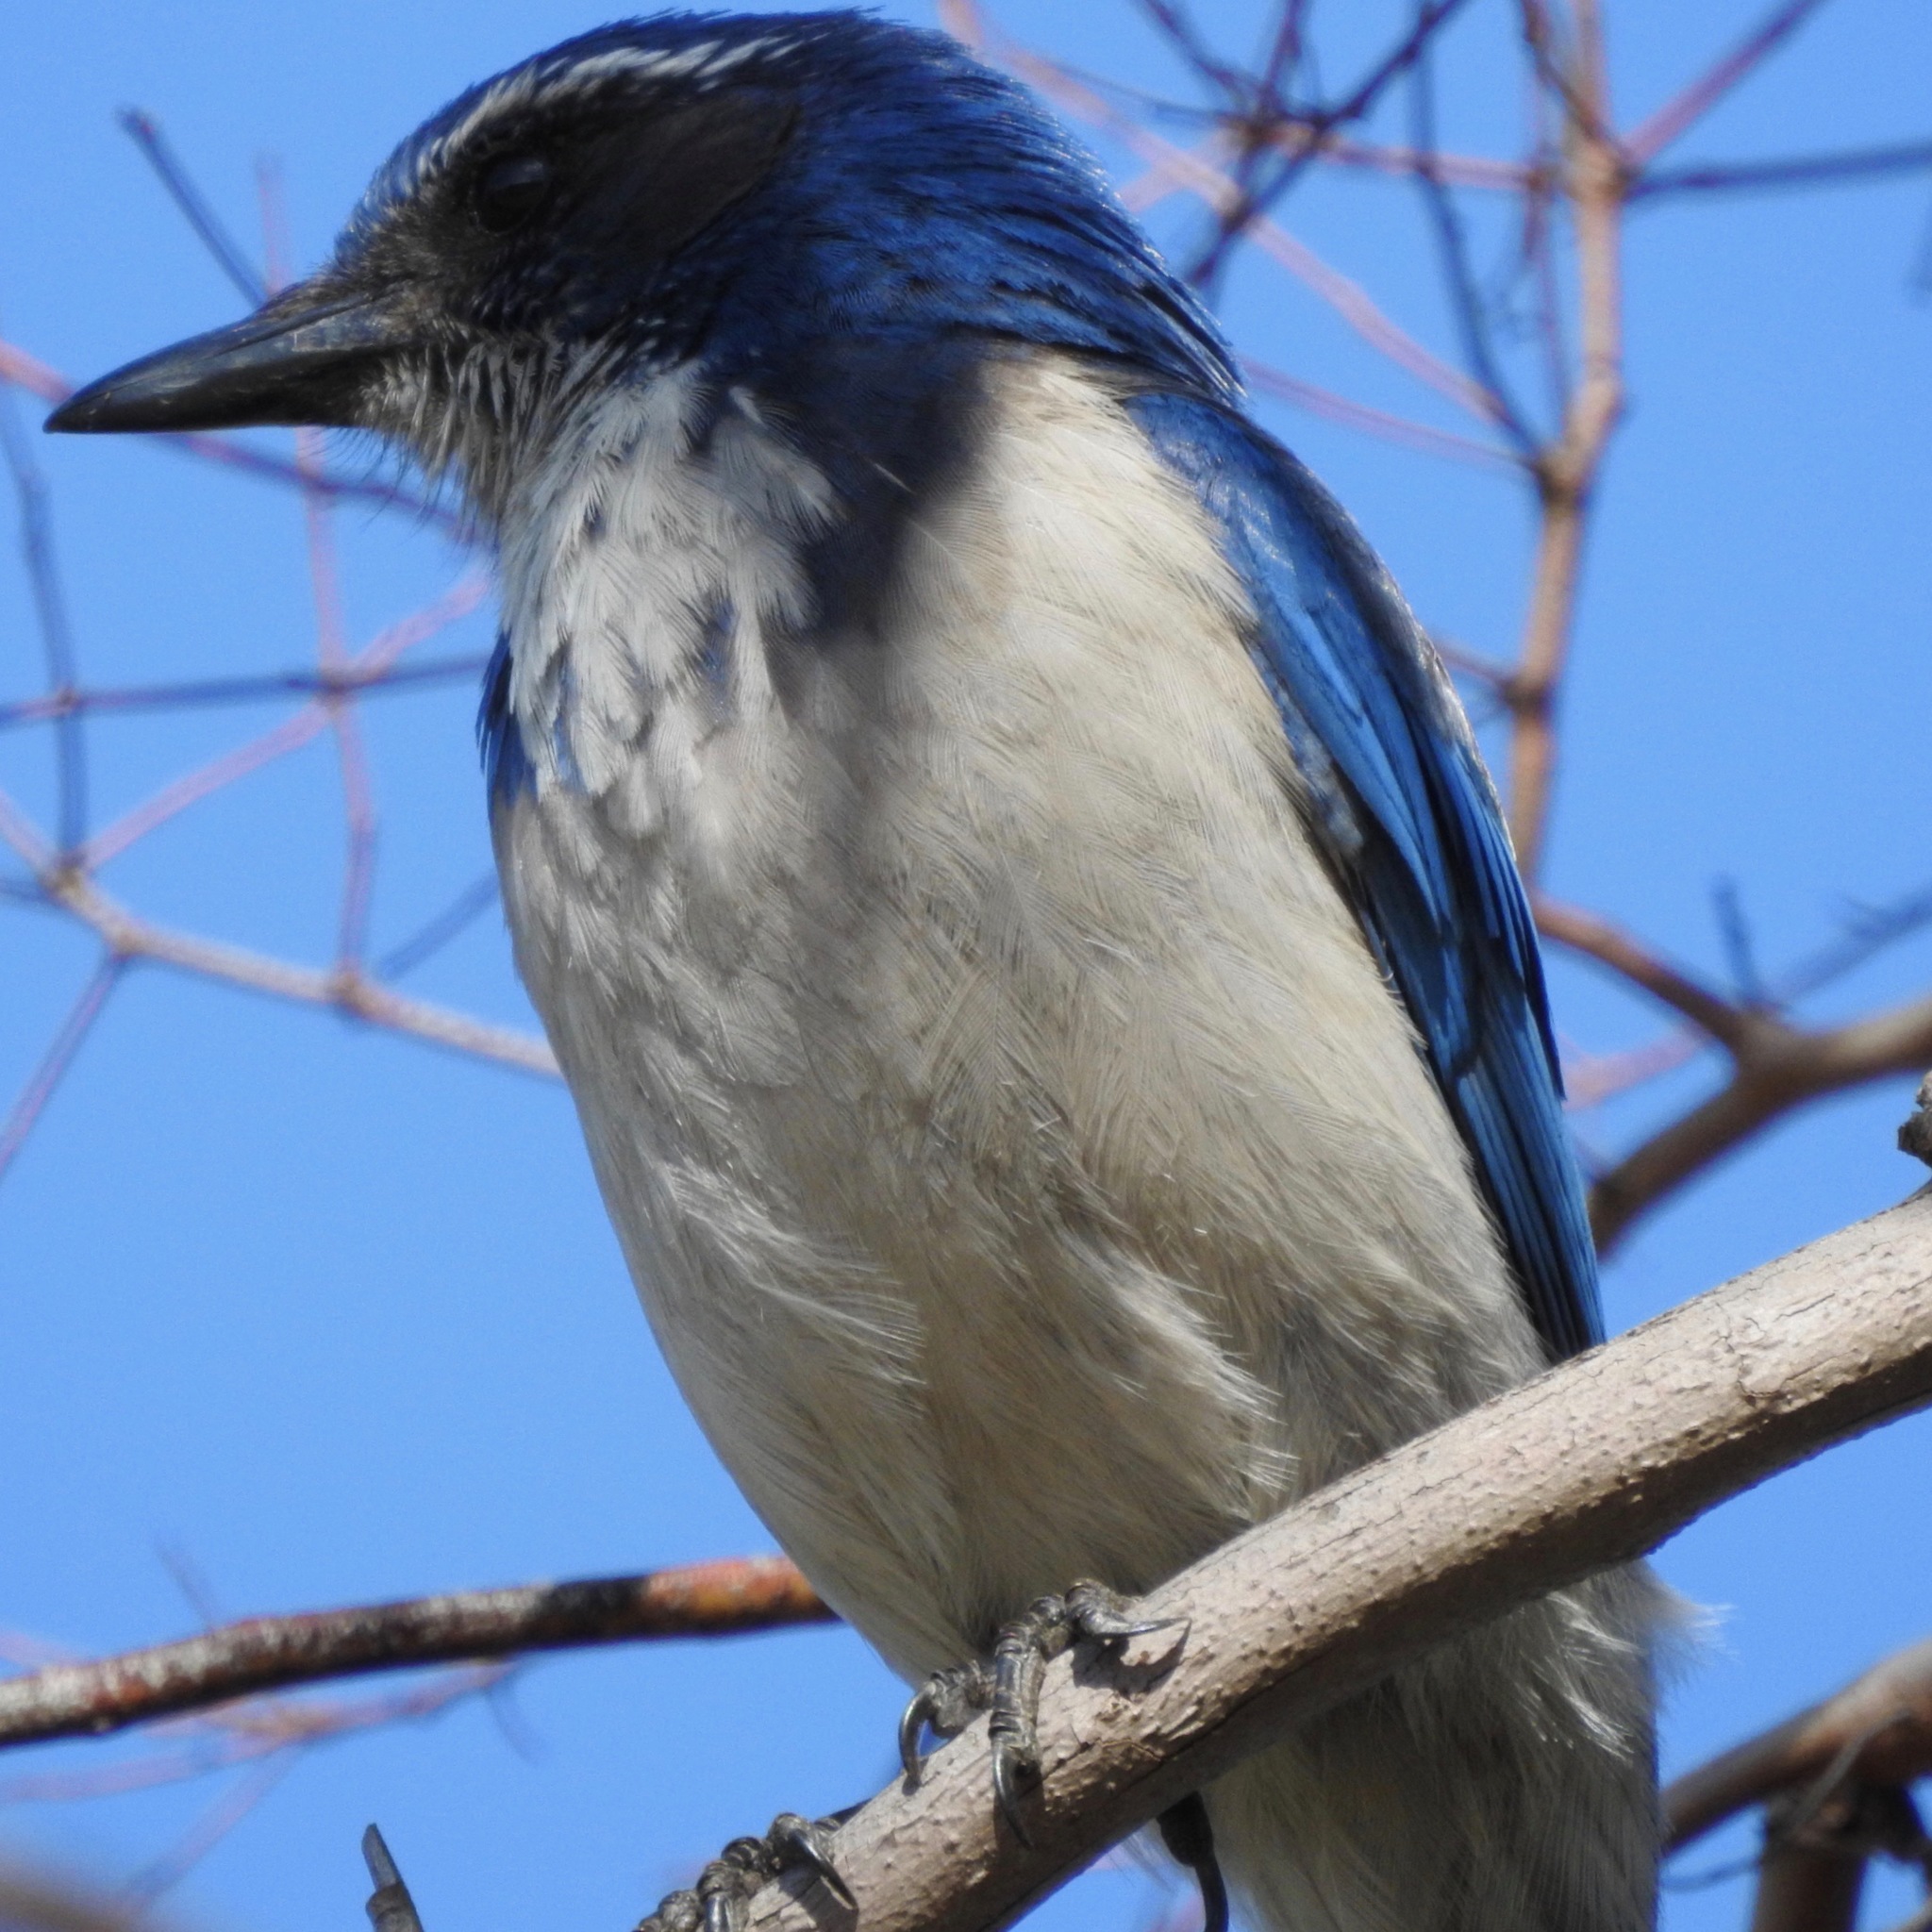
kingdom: Animalia
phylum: Chordata
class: Aves
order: Passeriformes
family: Corvidae
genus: Aphelocoma
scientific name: Aphelocoma californica
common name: California scrub-jay
